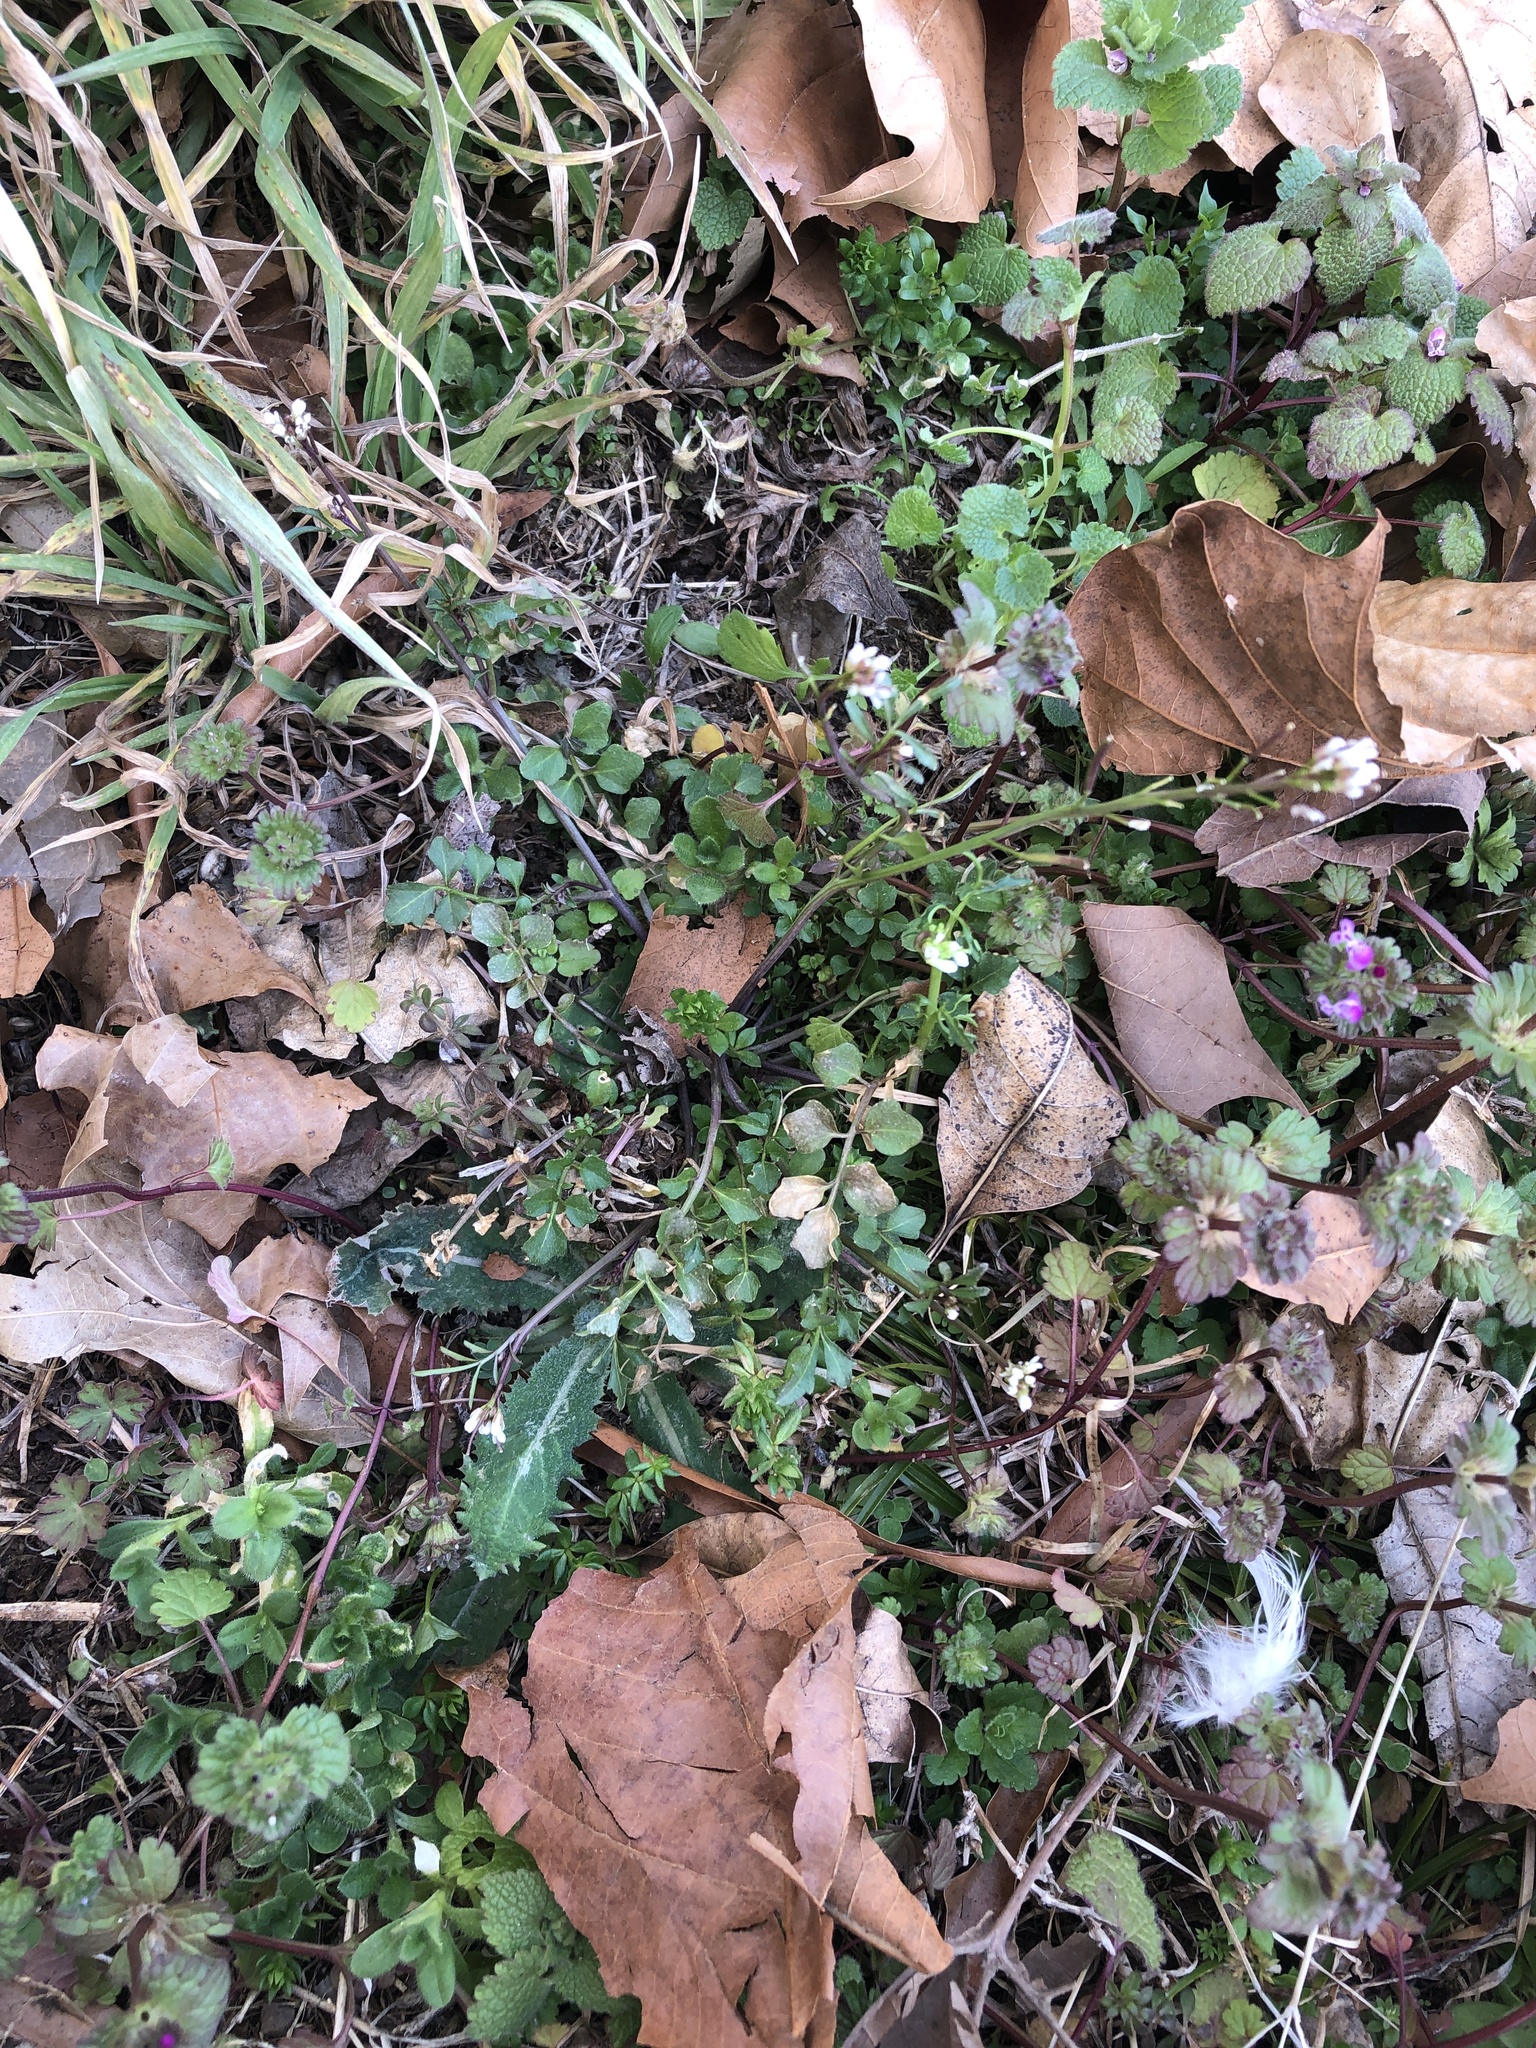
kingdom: Plantae
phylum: Tracheophyta
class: Magnoliopsida
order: Brassicales
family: Brassicaceae
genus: Cardamine
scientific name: Cardamine hirsuta
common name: Hairy bittercress
